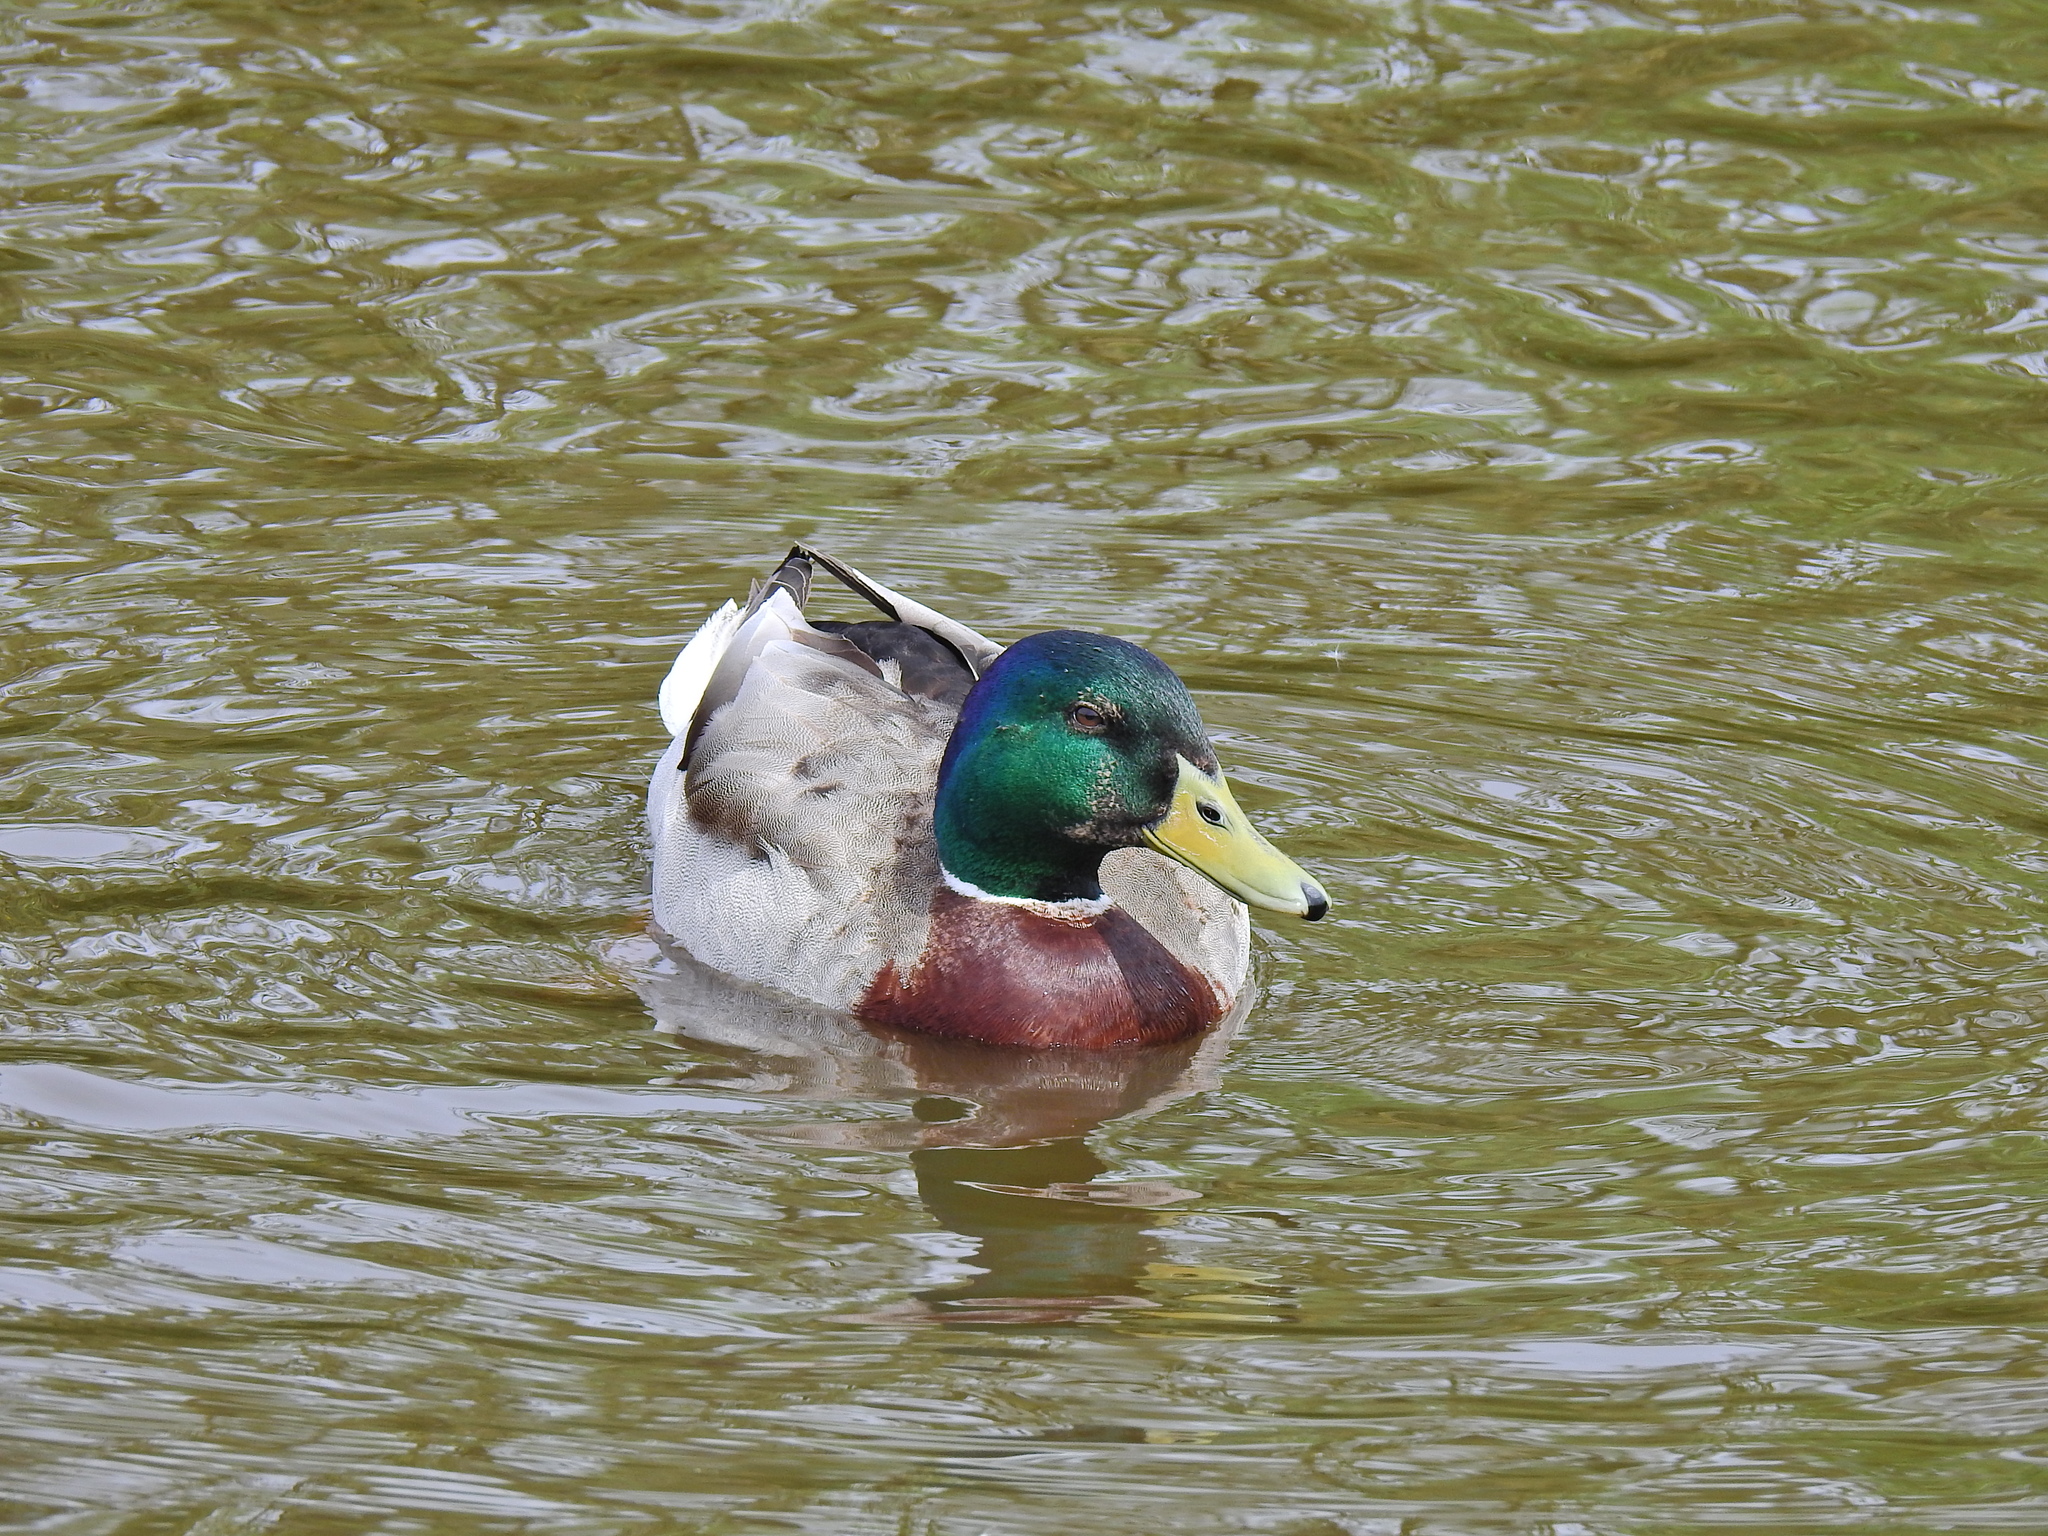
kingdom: Animalia
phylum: Chordata
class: Aves
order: Anseriformes
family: Anatidae
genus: Anas
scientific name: Anas platyrhynchos
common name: Mallard
